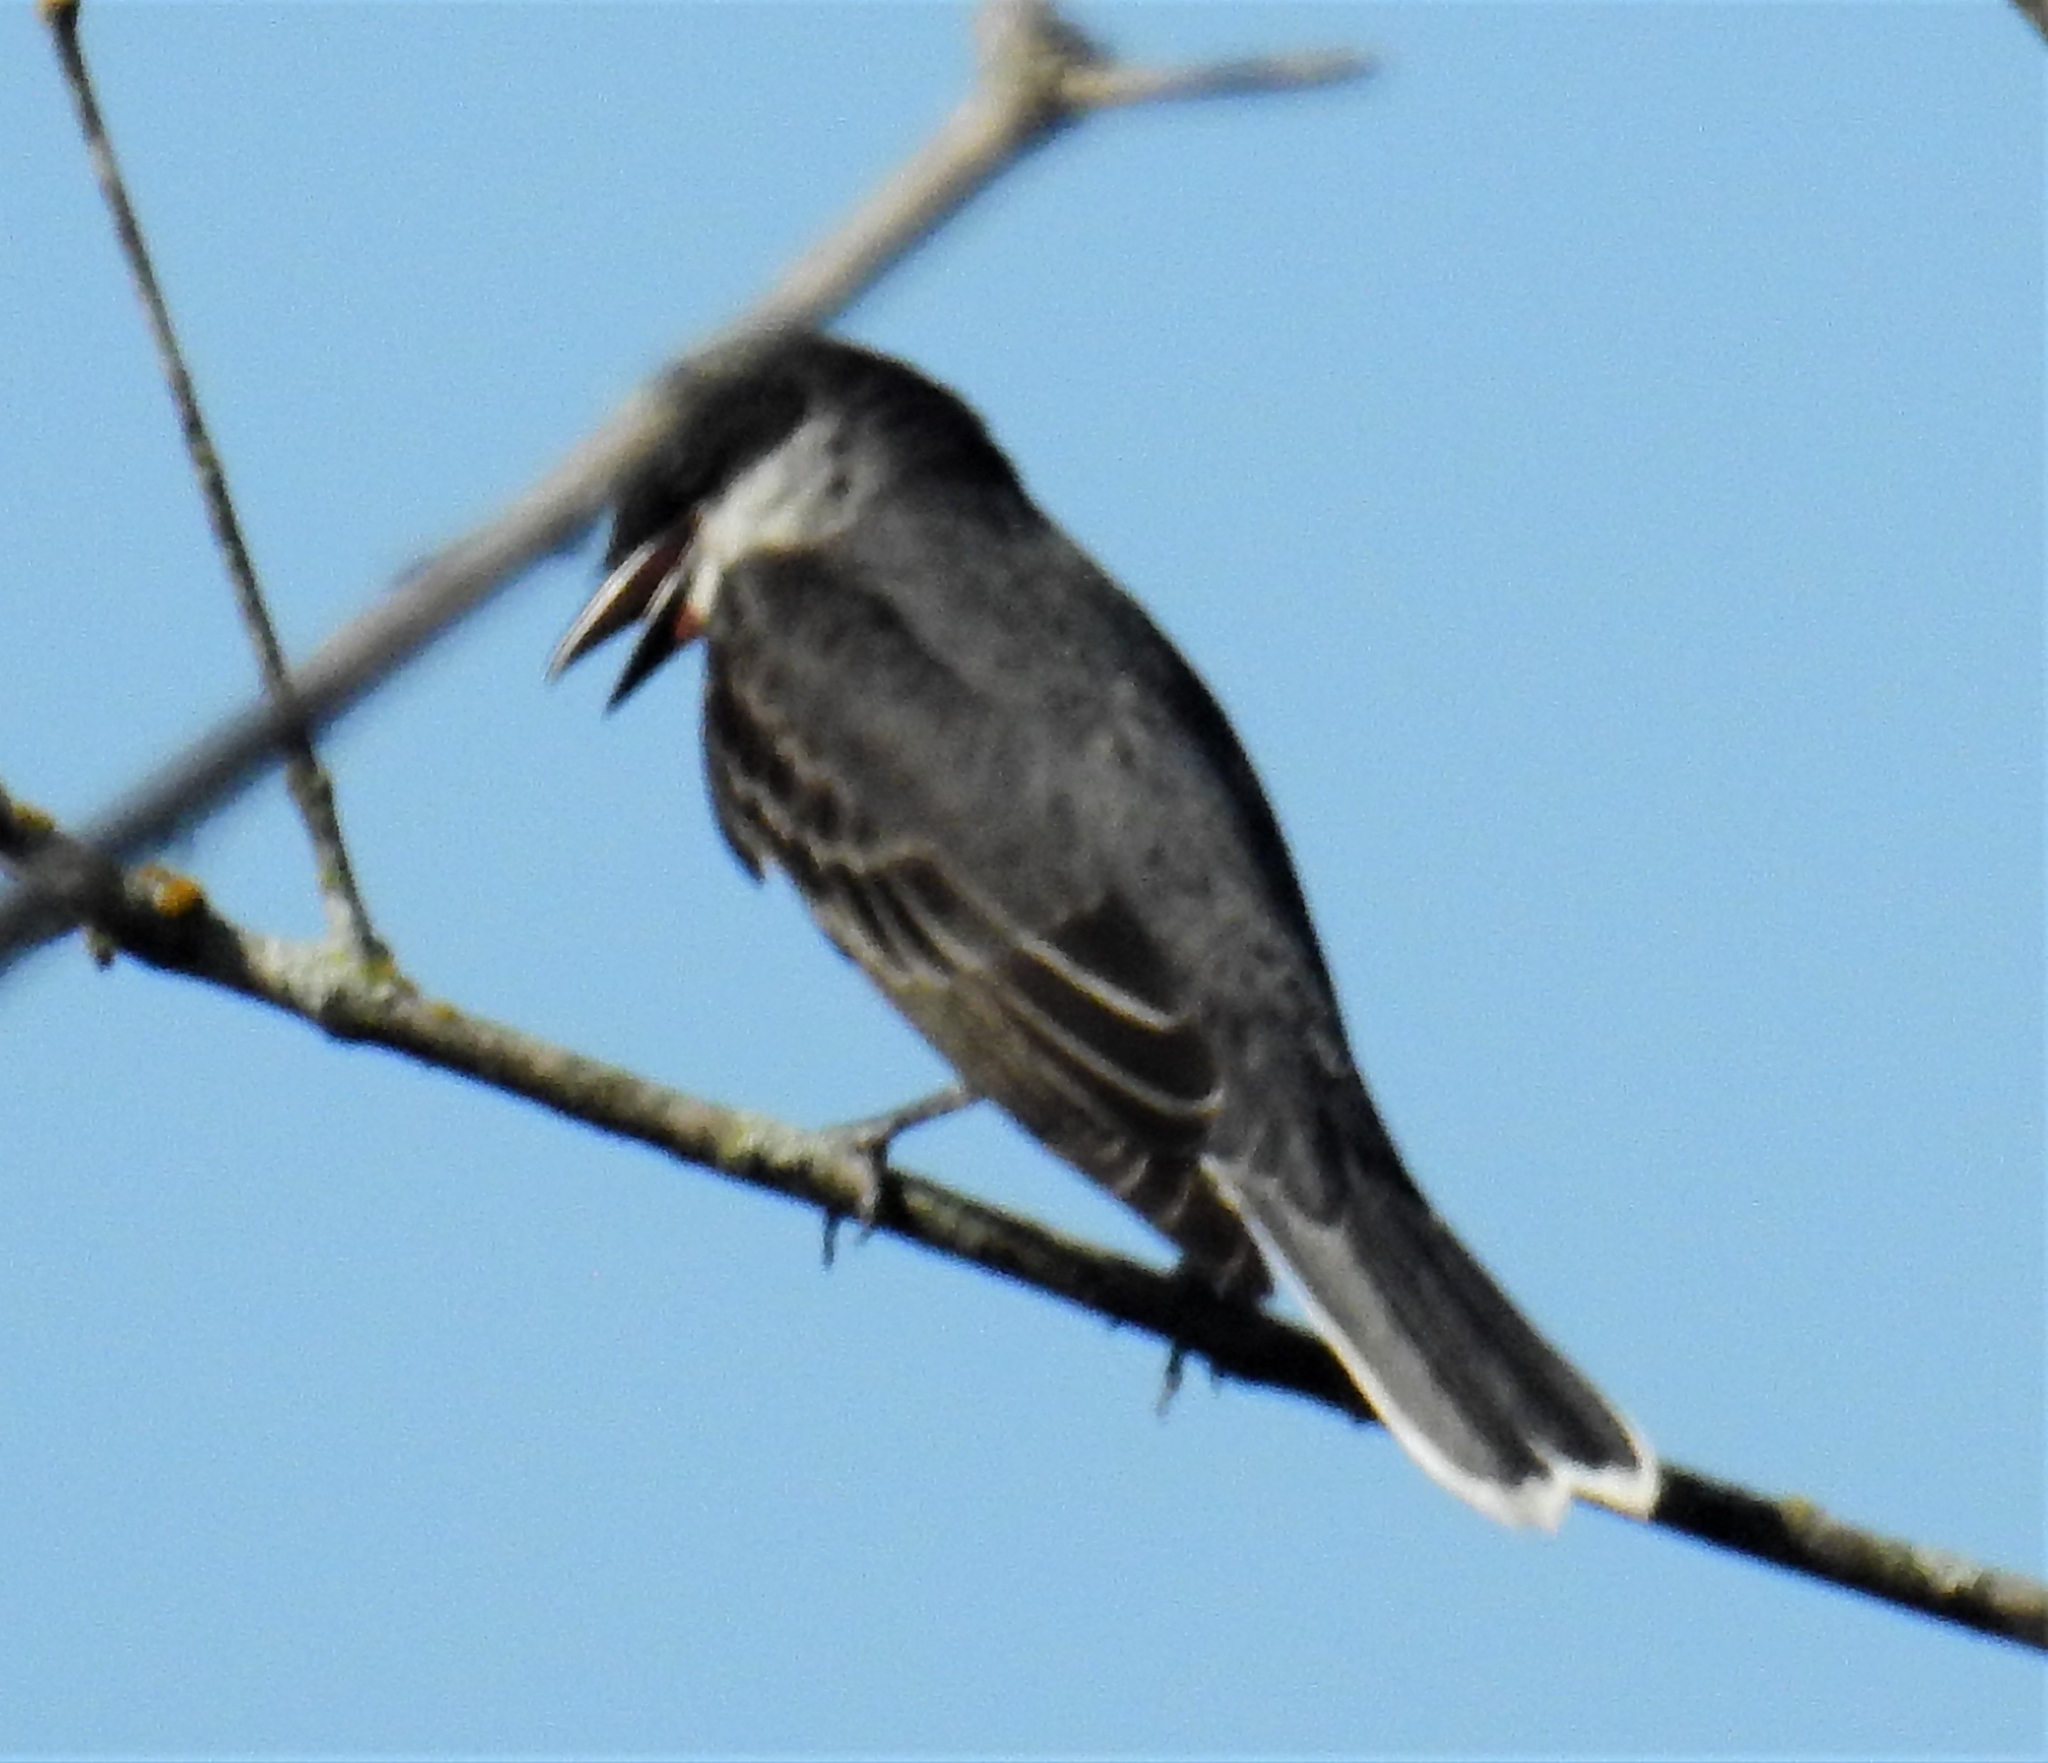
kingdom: Animalia
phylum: Chordata
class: Aves
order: Passeriformes
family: Tyrannidae
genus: Tyrannus
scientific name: Tyrannus tyrannus
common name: Eastern kingbird
